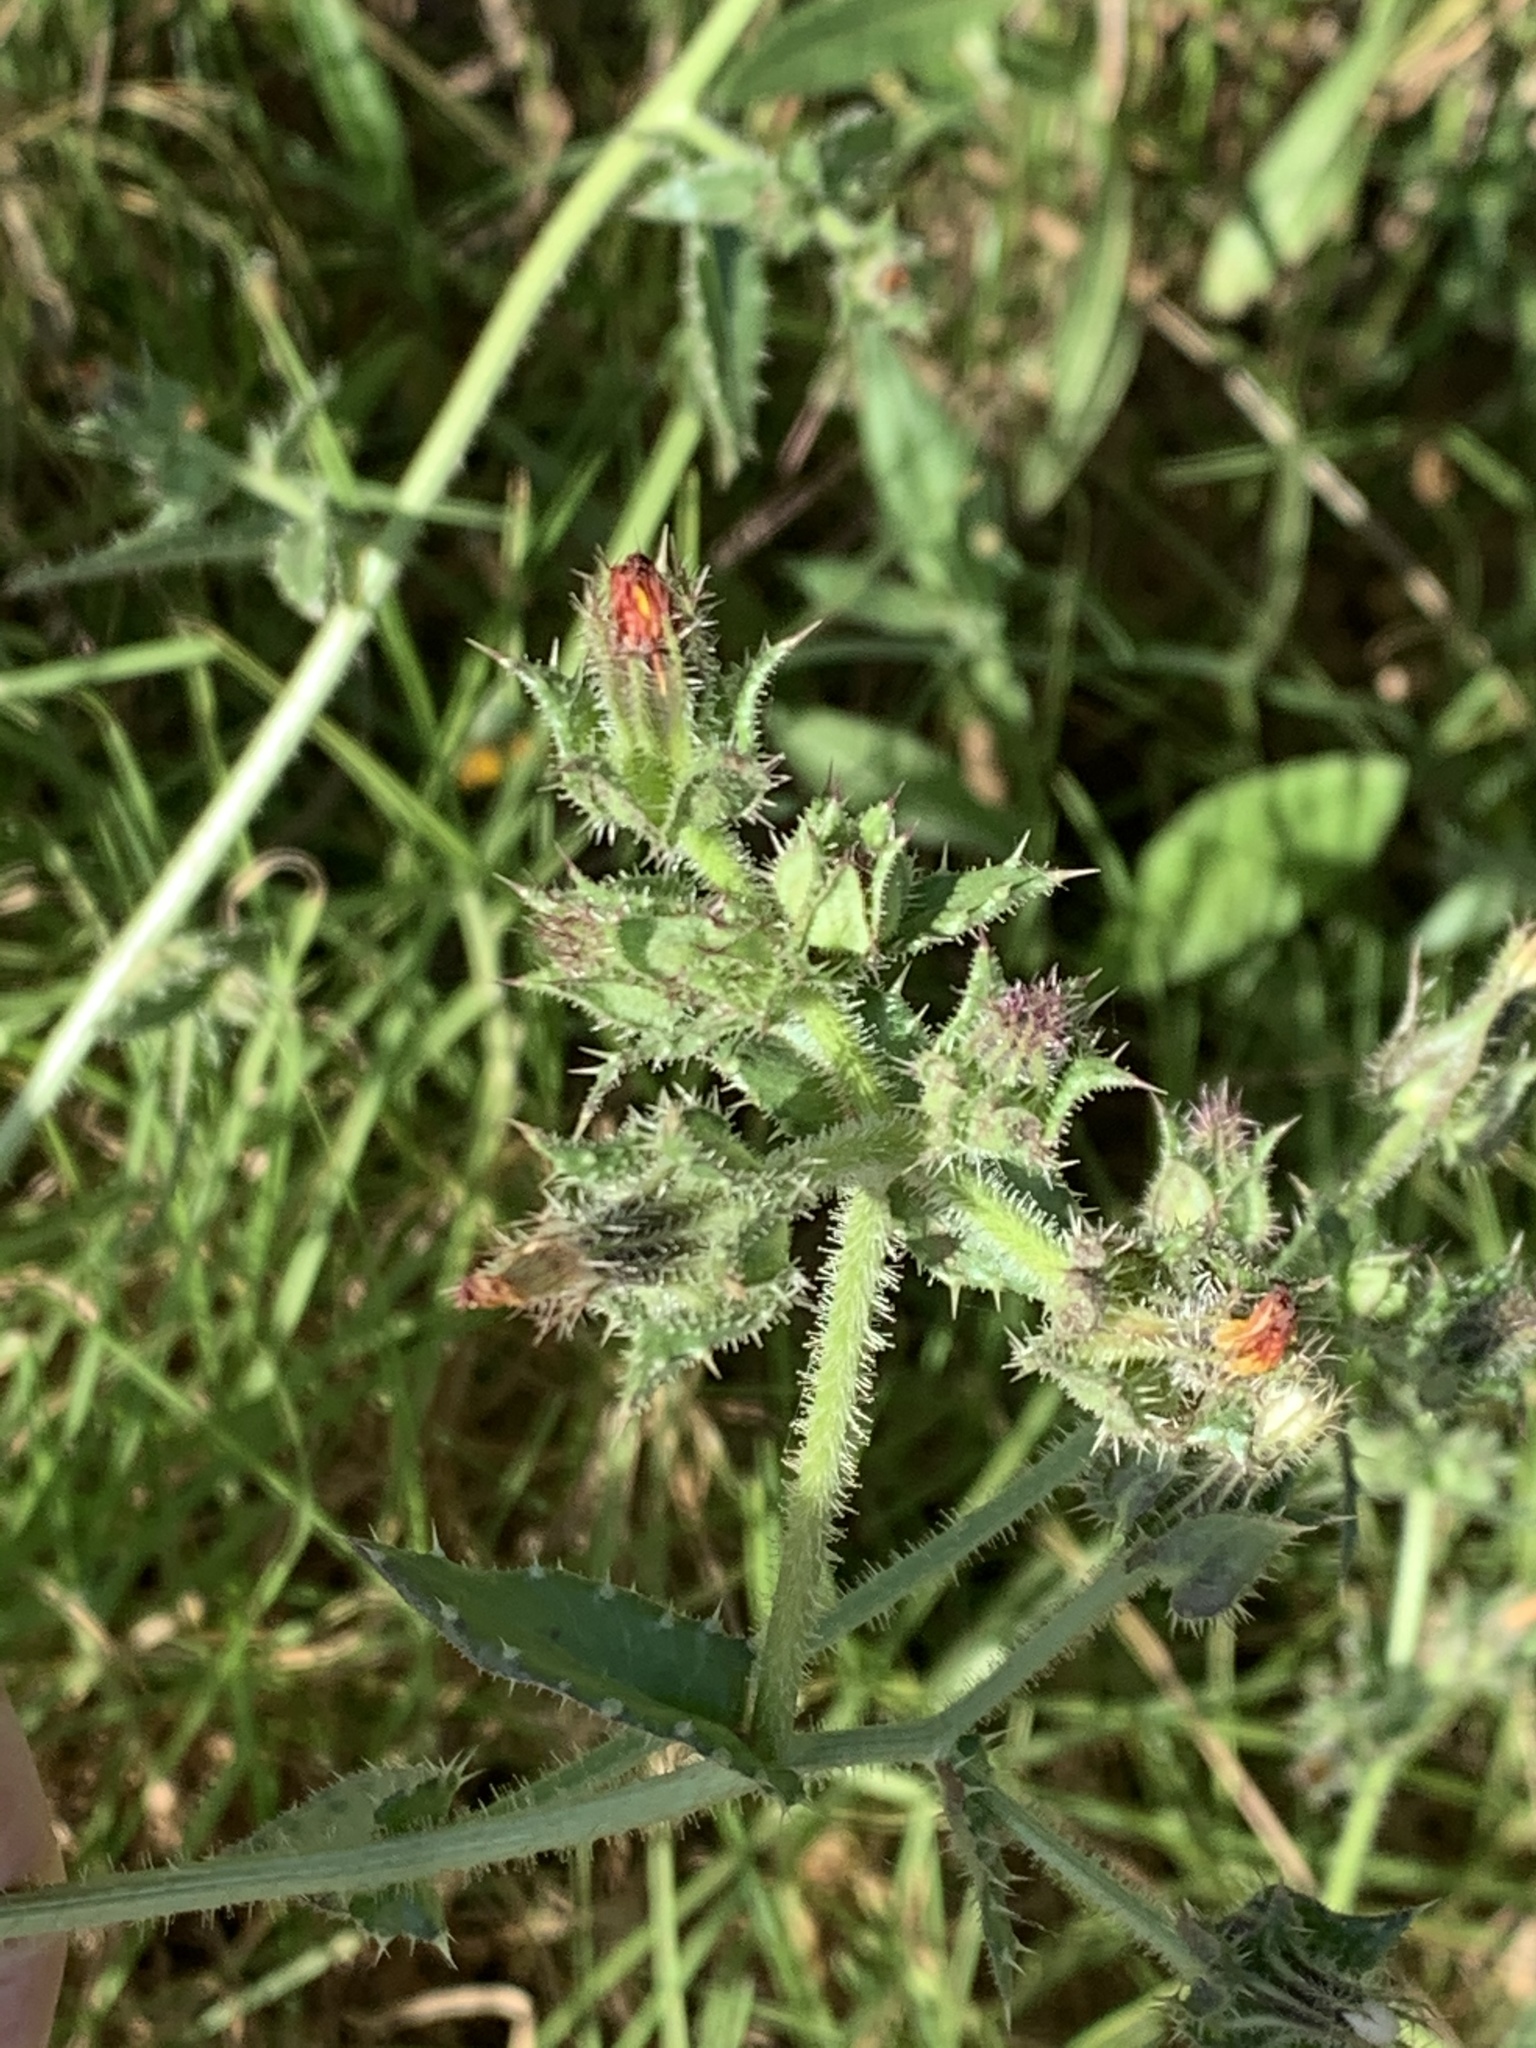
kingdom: Plantae
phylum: Tracheophyta
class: Magnoliopsida
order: Asterales
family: Asteraceae
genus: Helminthotheca
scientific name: Helminthotheca echioides
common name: Ox-tongue
